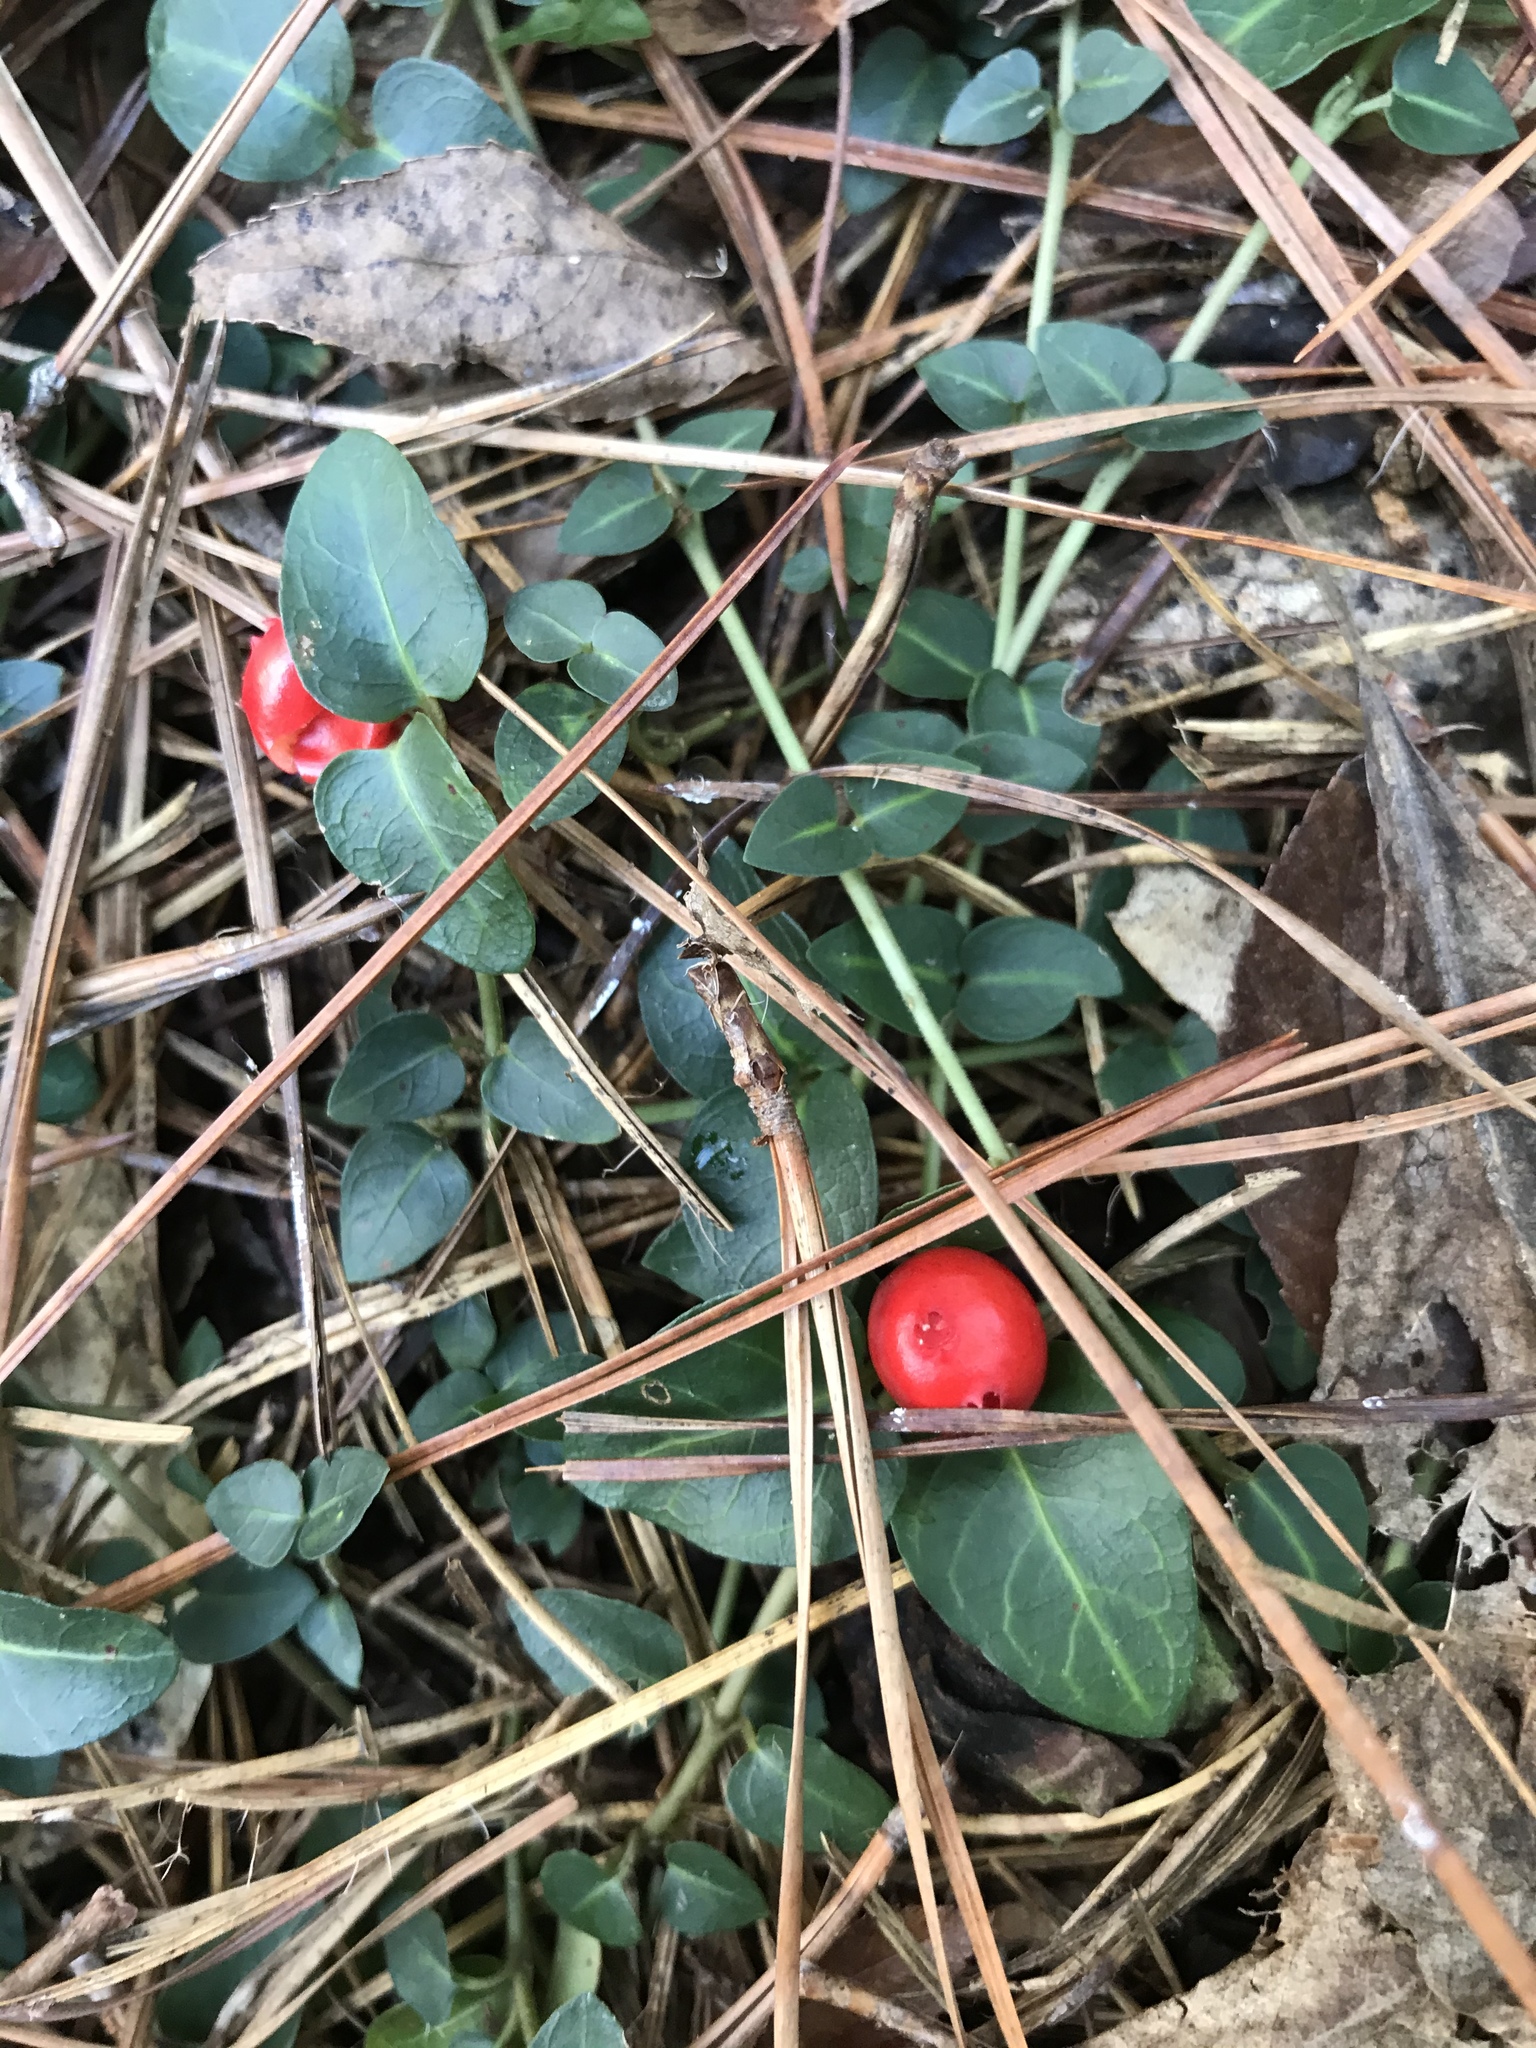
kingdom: Plantae
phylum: Tracheophyta
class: Magnoliopsida
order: Gentianales
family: Rubiaceae
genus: Mitchella
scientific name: Mitchella repens
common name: Partridge-berry
